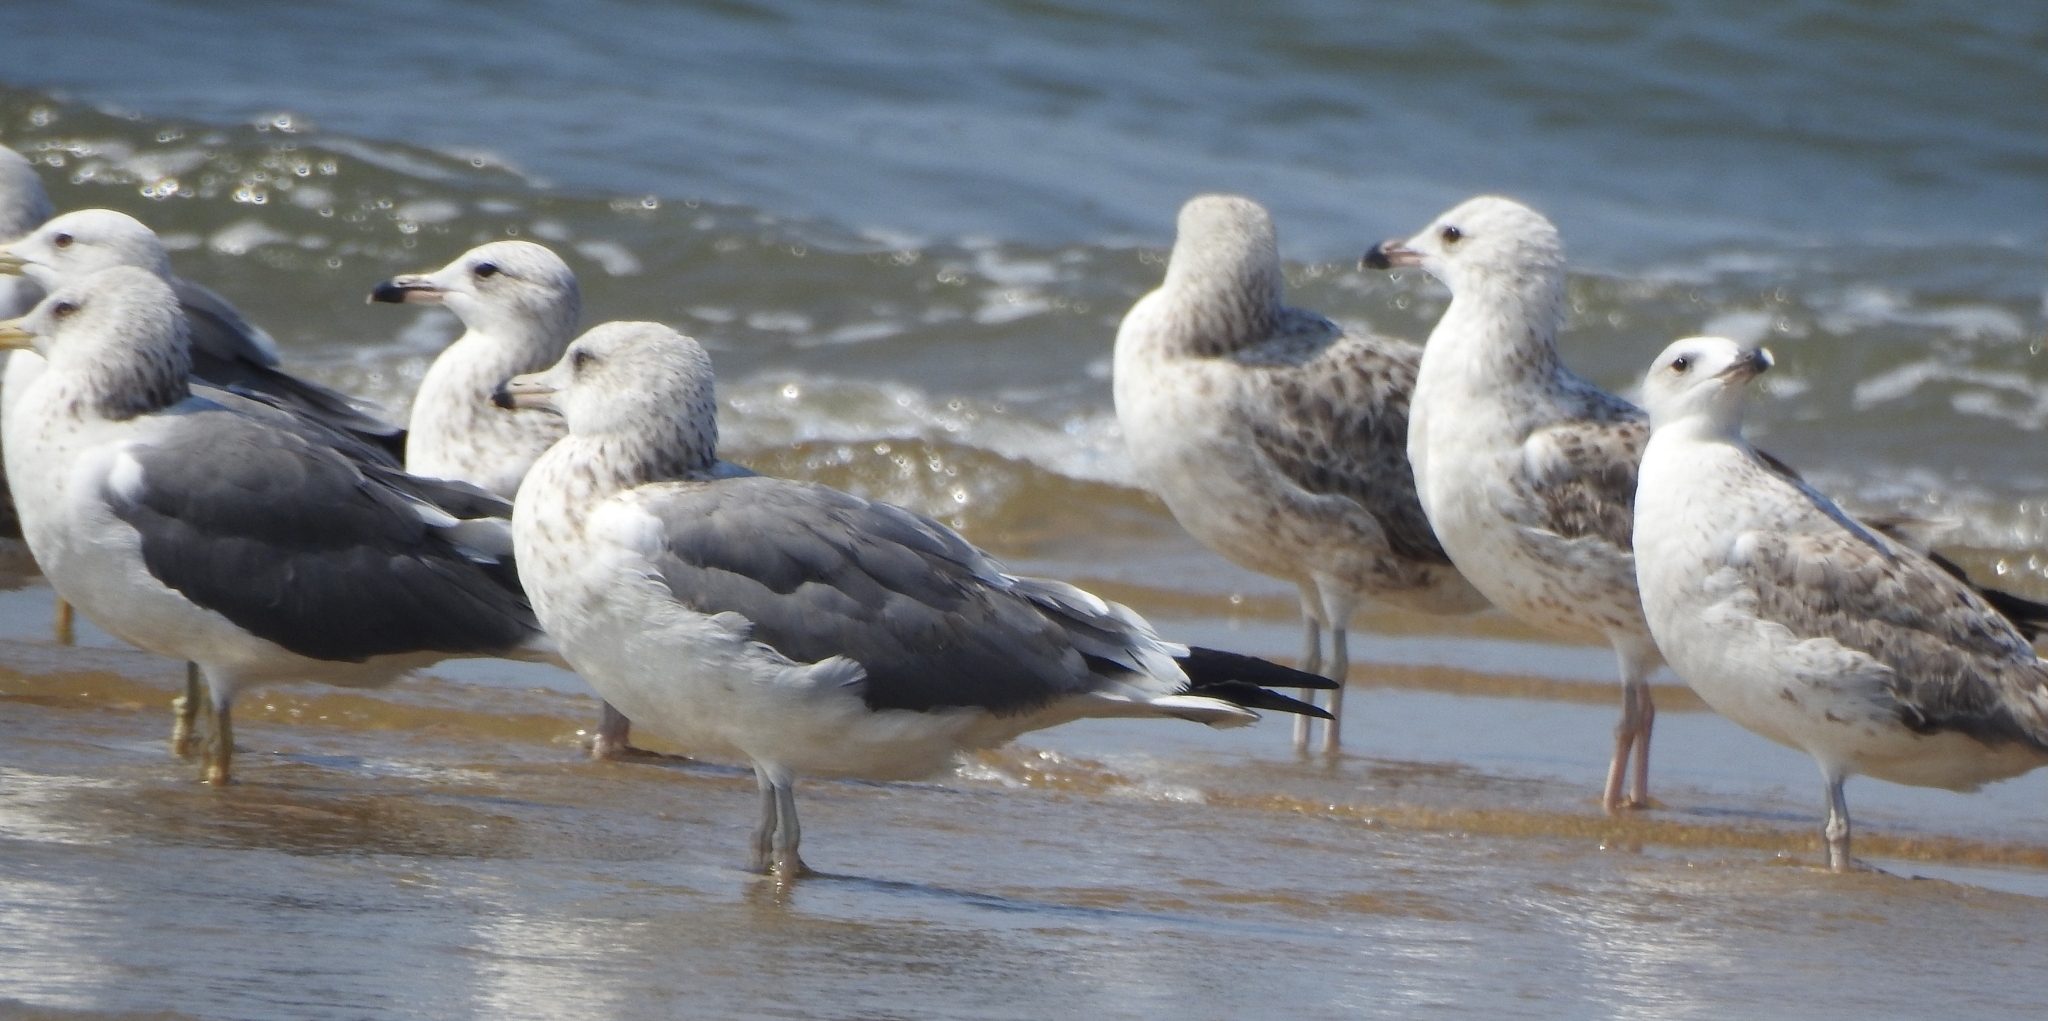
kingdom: Animalia
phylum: Chordata
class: Aves
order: Charadriiformes
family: Laridae
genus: Larus
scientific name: Larus fuscus
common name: Lesser black-backed gull
